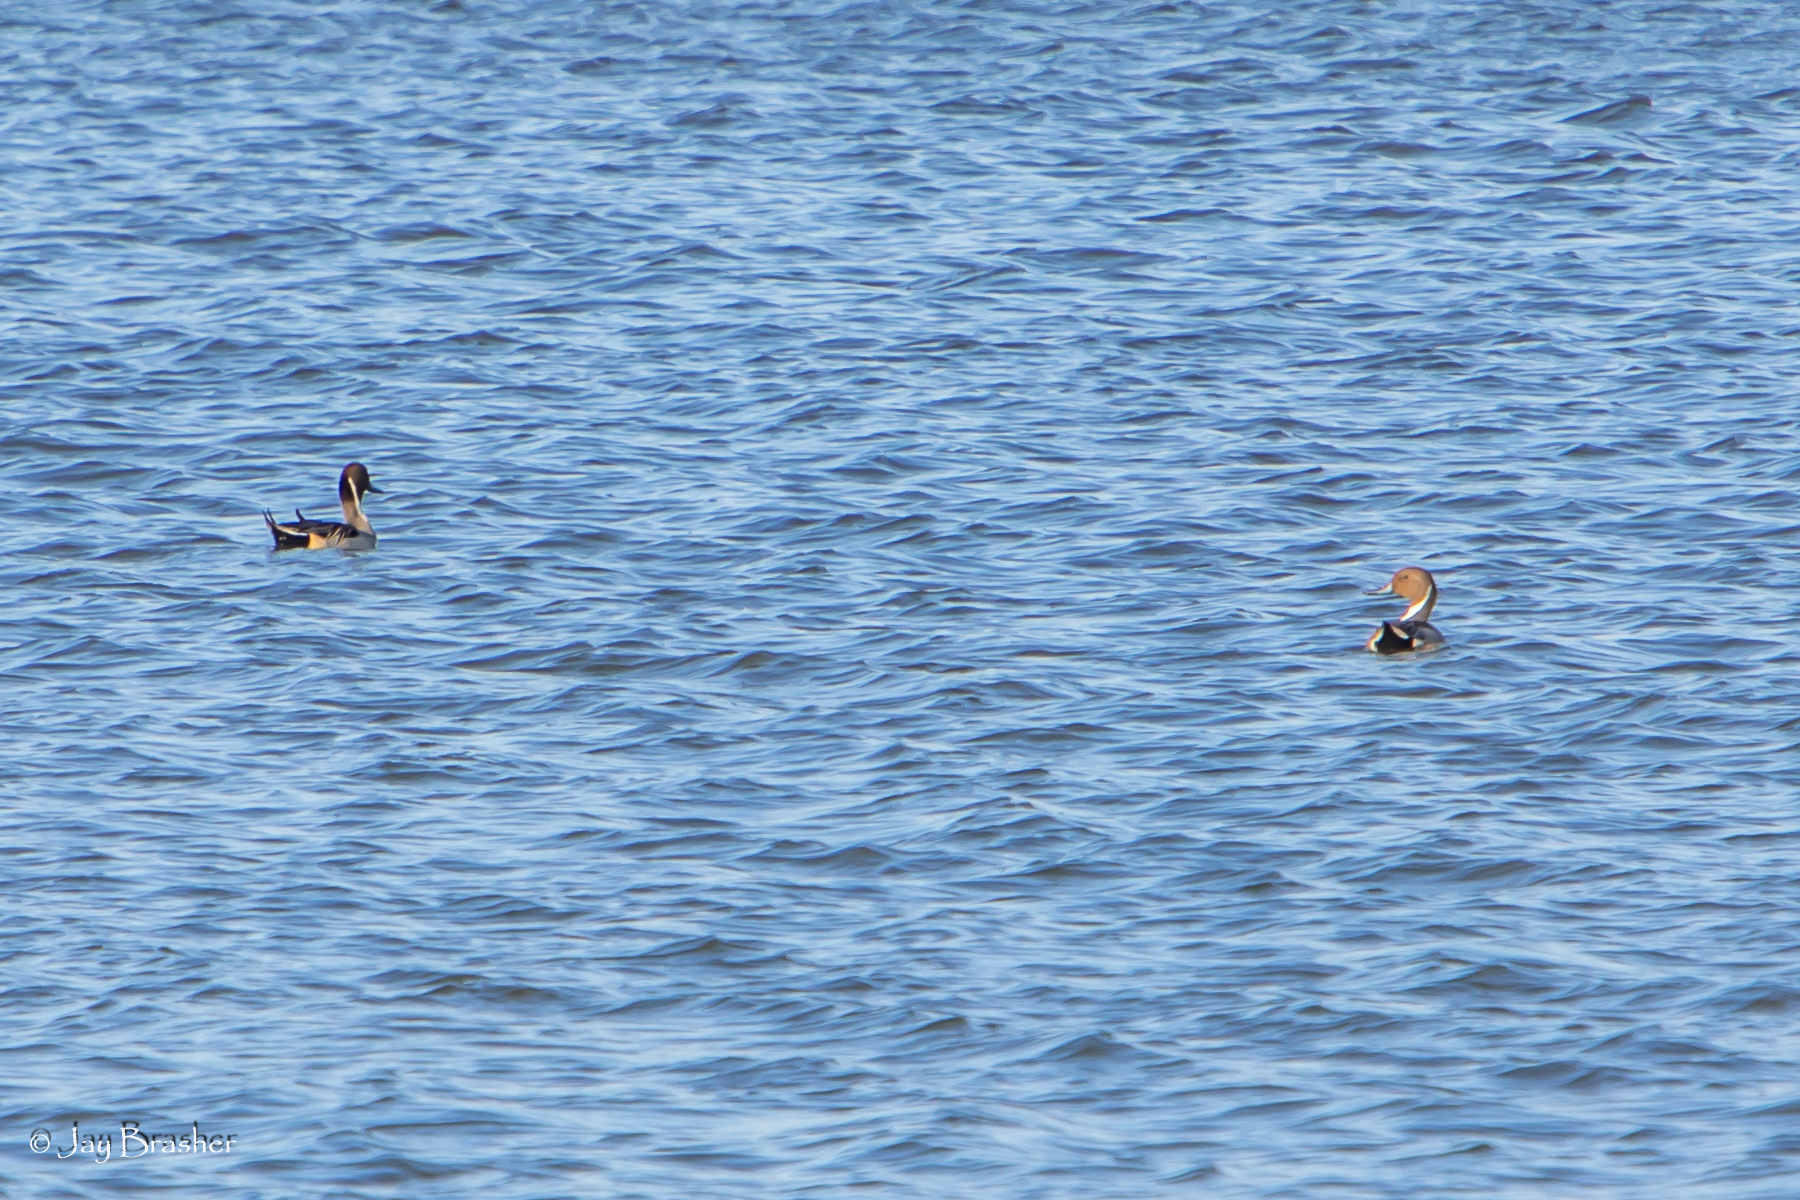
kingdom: Animalia
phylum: Chordata
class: Aves
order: Anseriformes
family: Anatidae
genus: Anas
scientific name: Anas acuta
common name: Northern pintail
